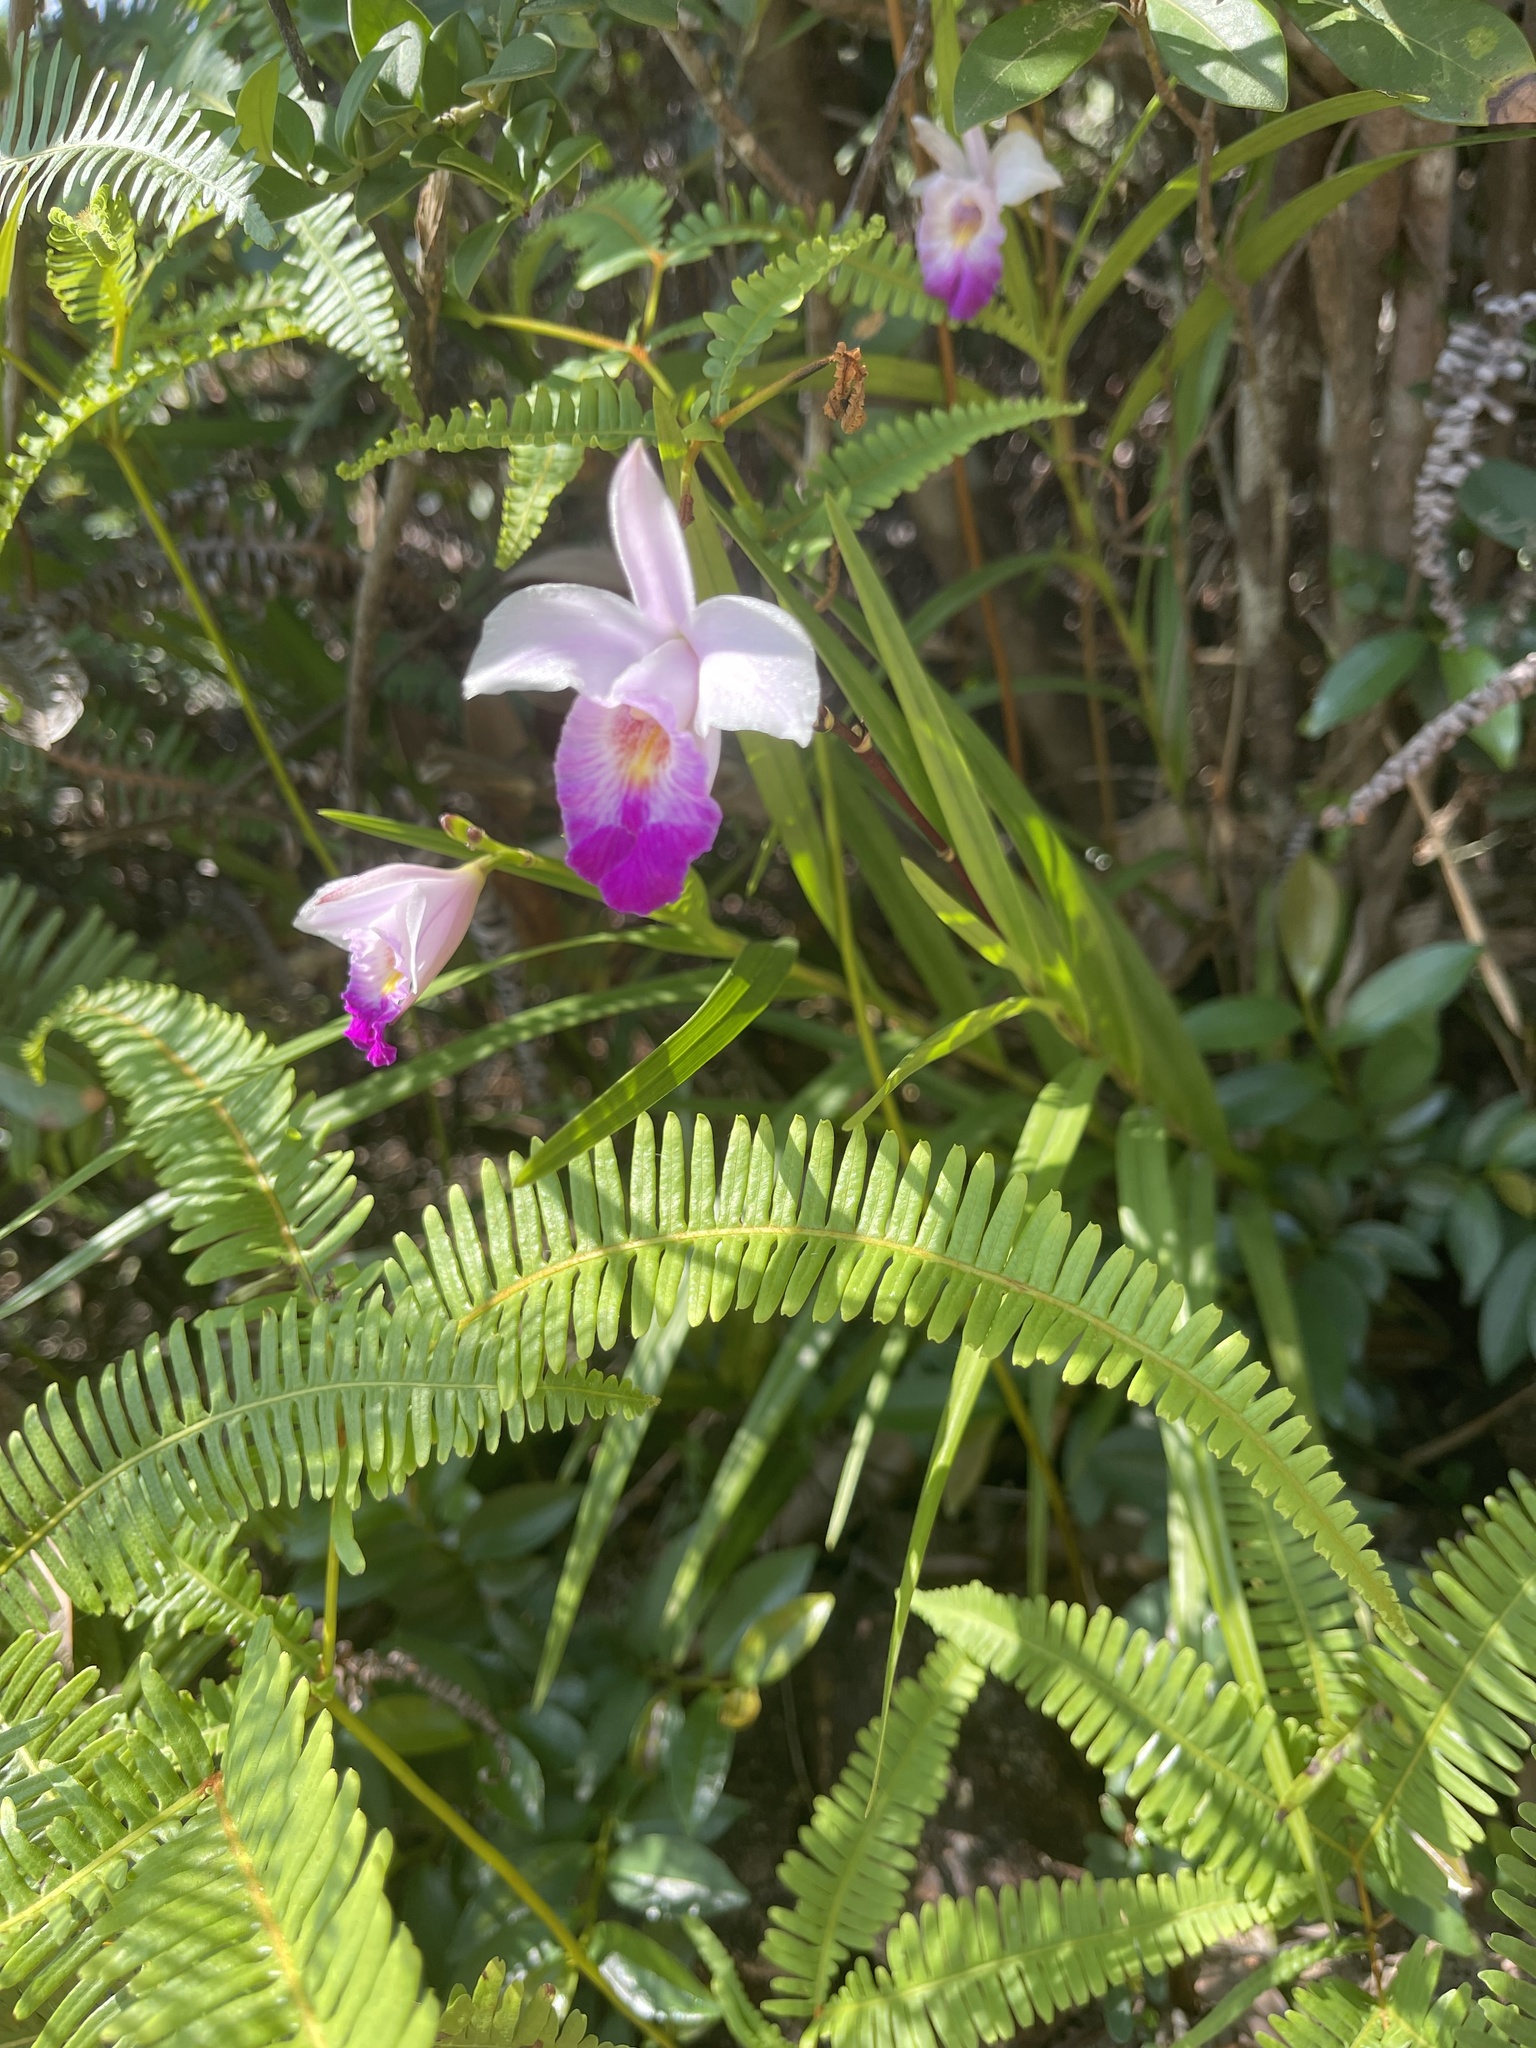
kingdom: Plantae
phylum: Tracheophyta
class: Liliopsida
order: Asparagales
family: Orchidaceae
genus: Arundina
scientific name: Arundina graminifolia
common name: Bamboo orchid
